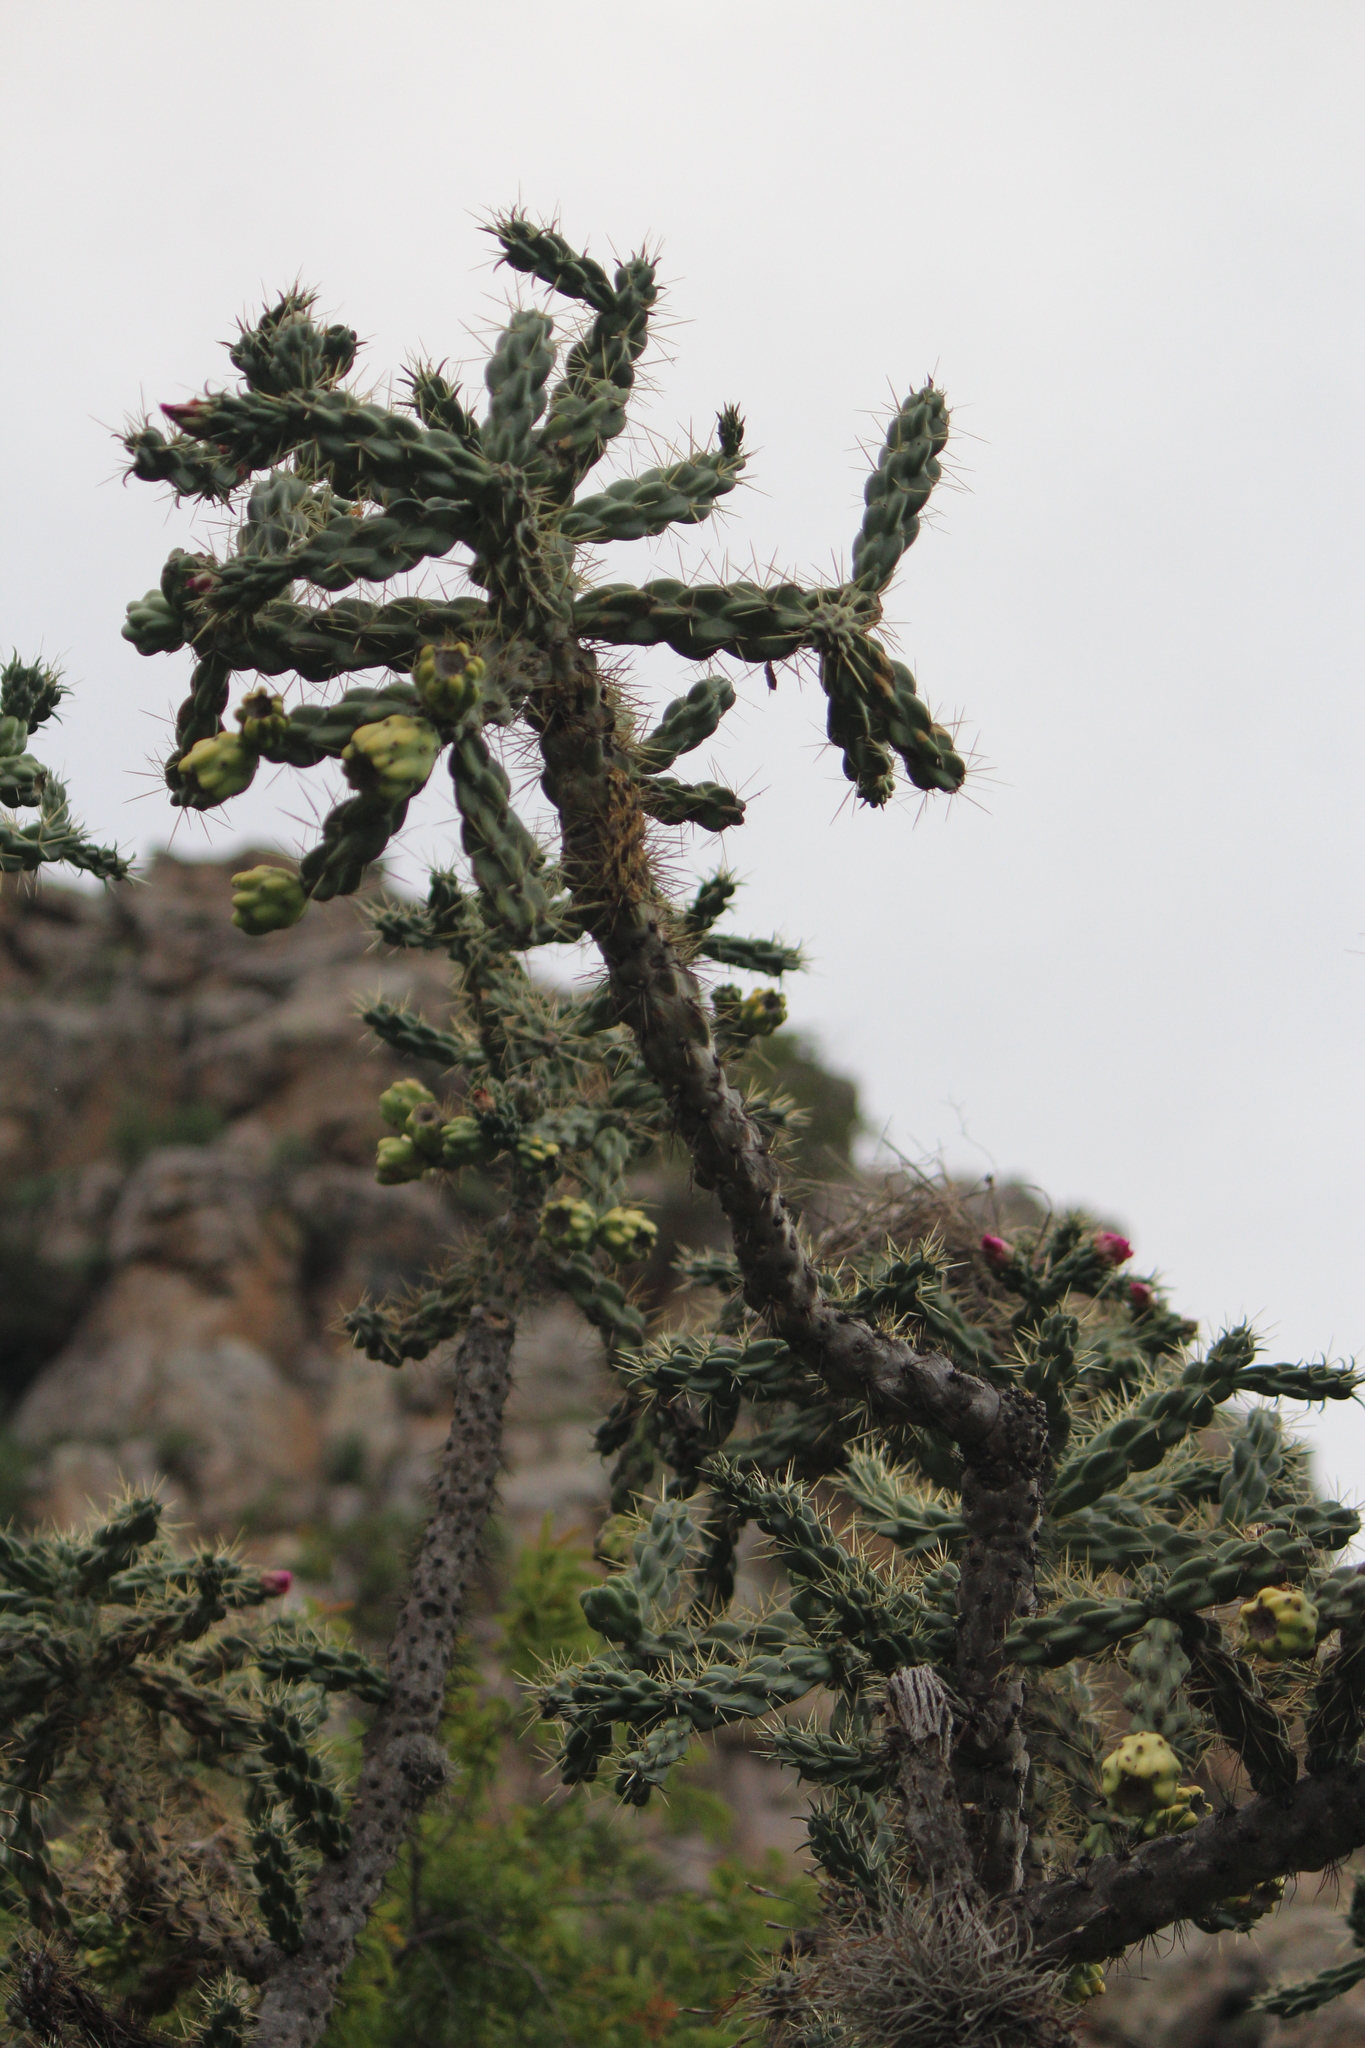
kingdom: Plantae
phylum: Tracheophyta
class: Magnoliopsida
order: Caryophyllales
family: Cactaceae
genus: Cylindropuntia
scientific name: Cylindropuntia imbricata
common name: Candelabrum cactus
